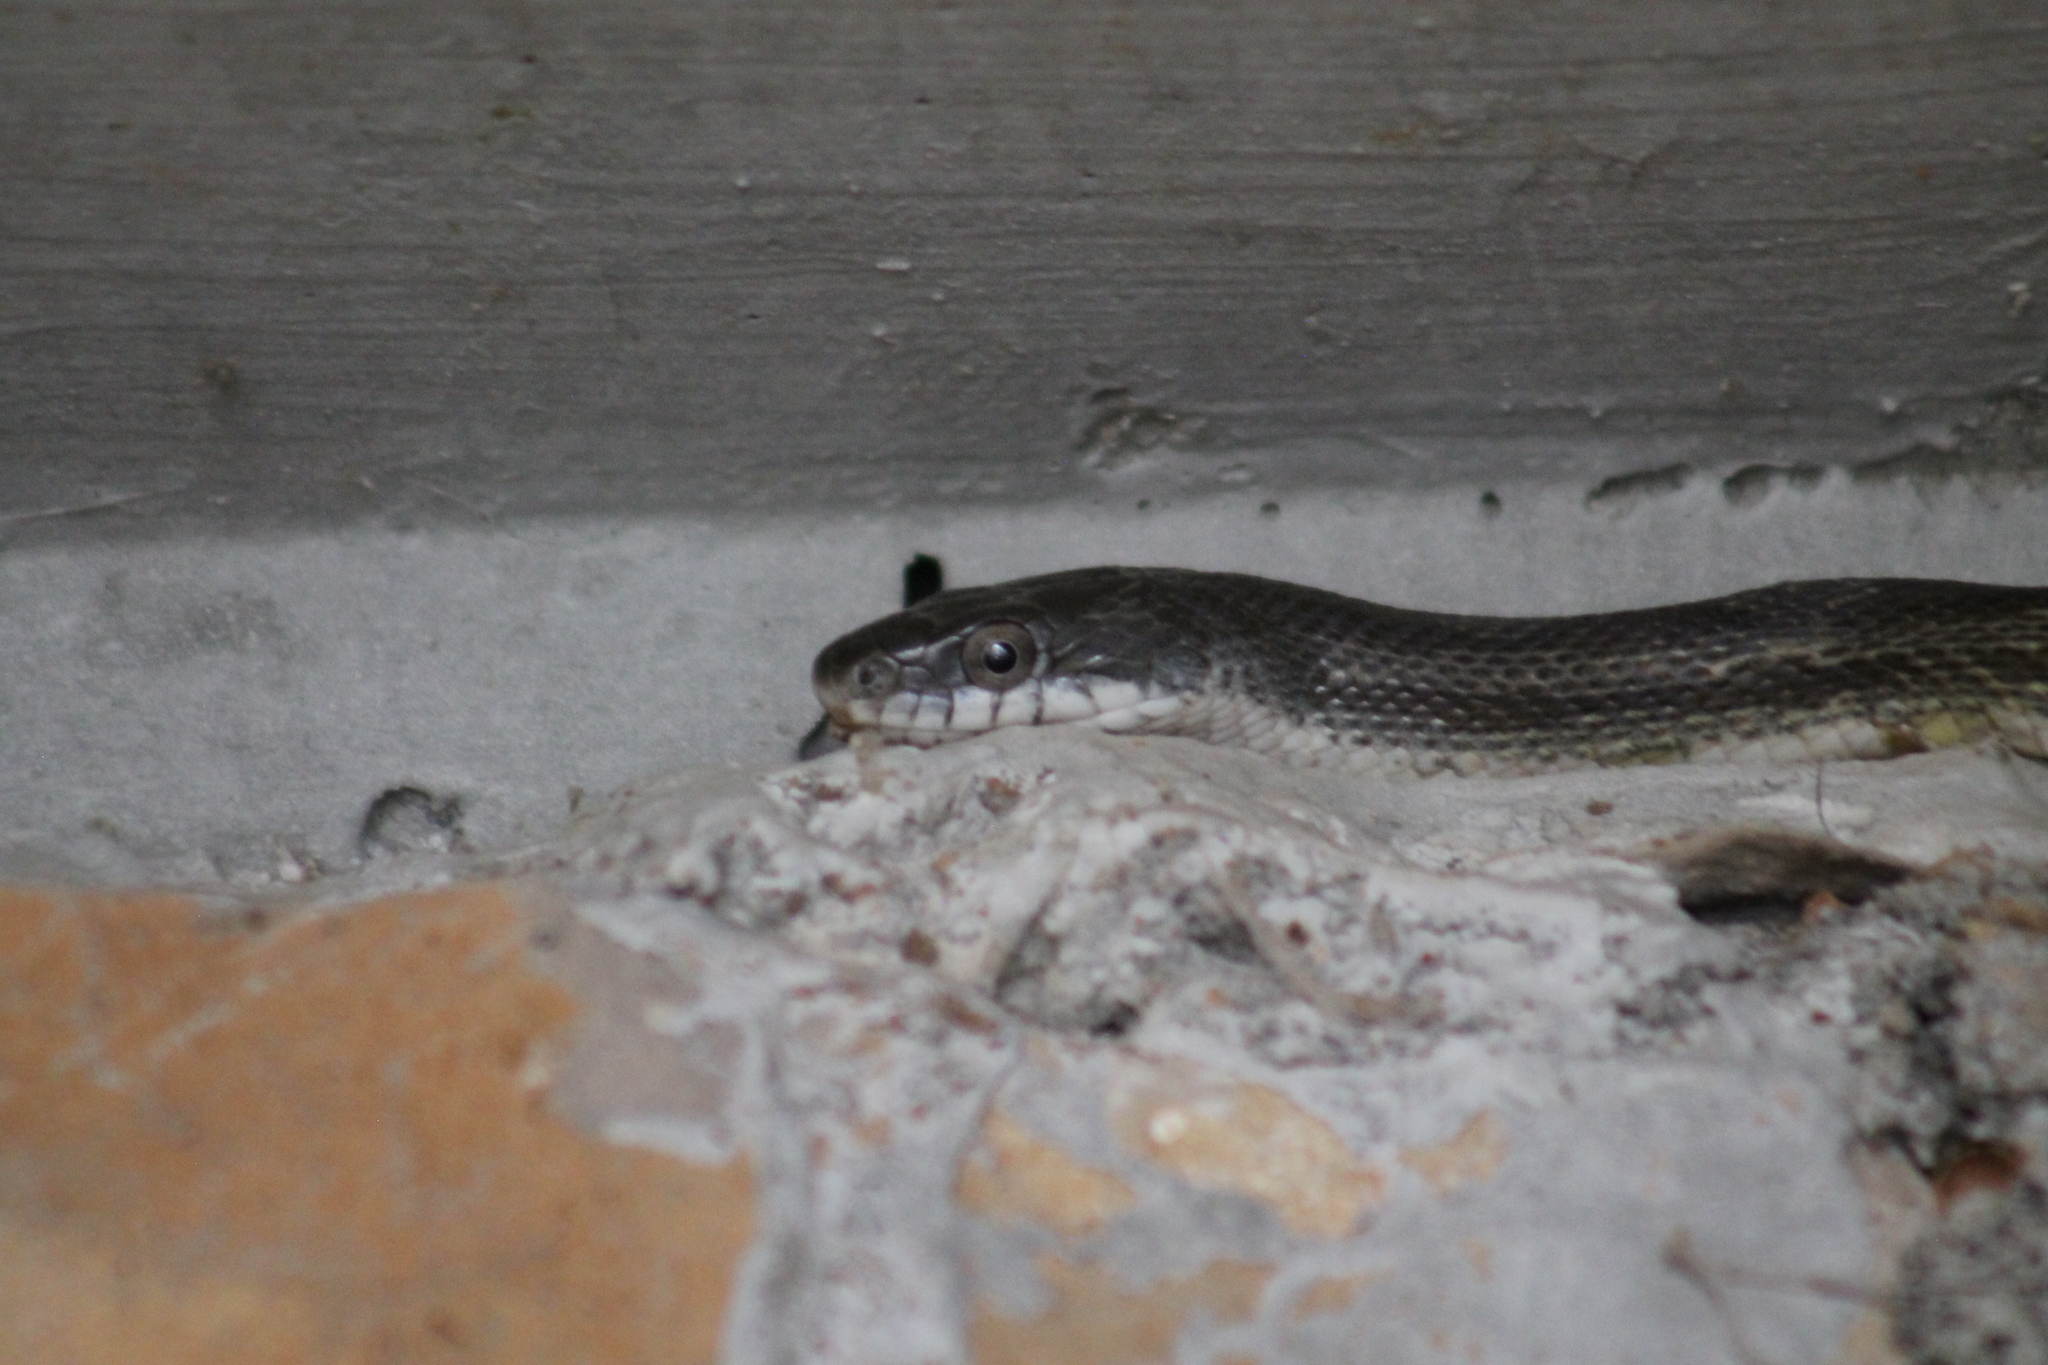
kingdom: Animalia
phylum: Chordata
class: Squamata
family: Colubridae
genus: Pantherophis
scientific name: Pantherophis spiloides
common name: Gray rat snake
